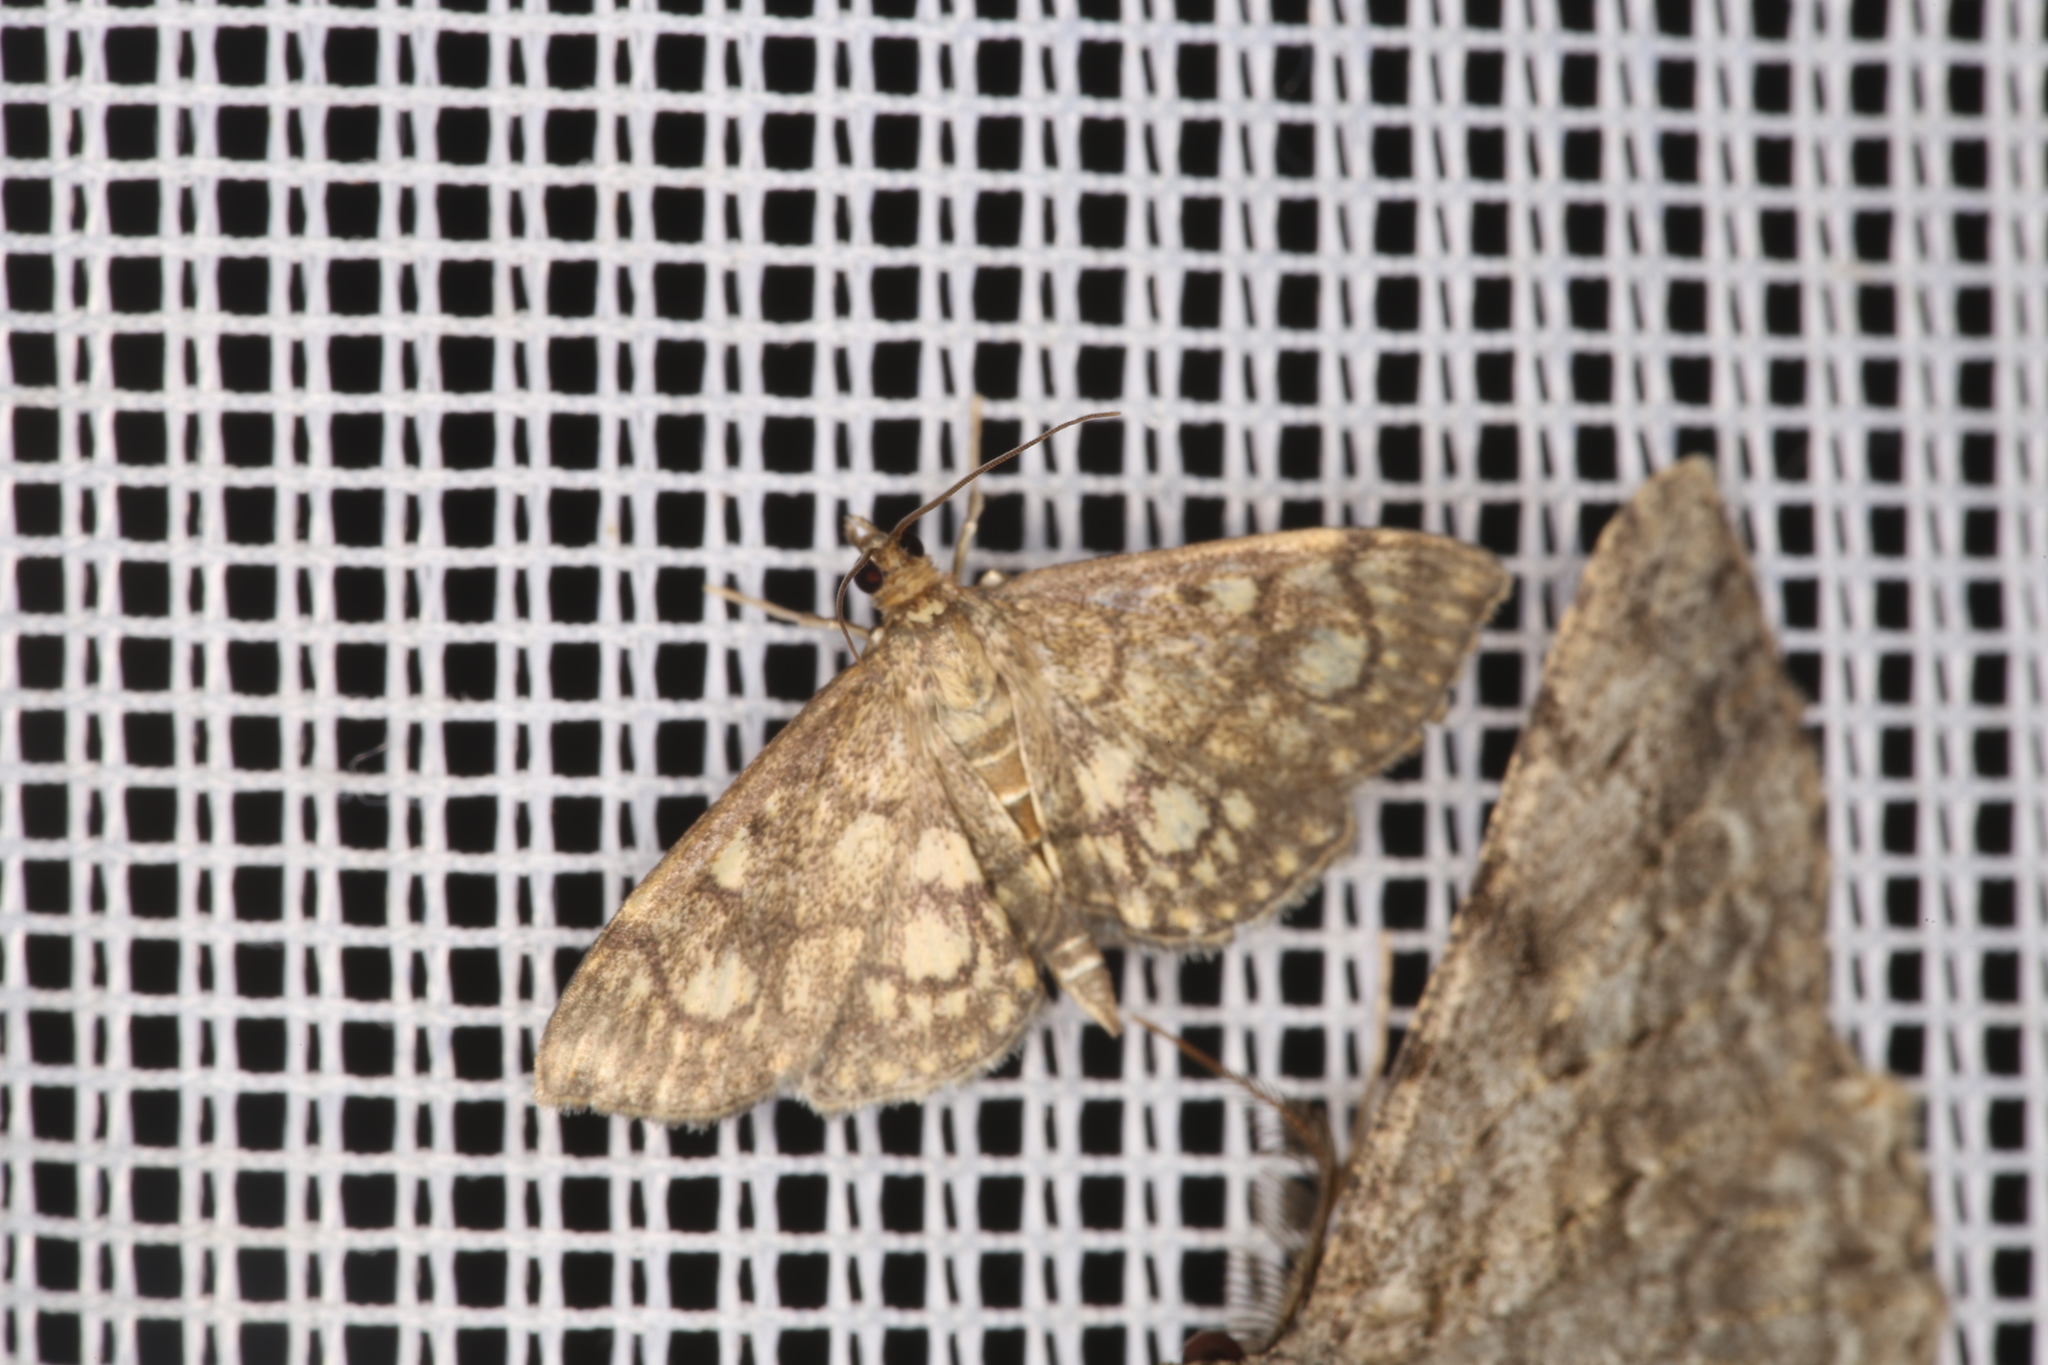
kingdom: Animalia
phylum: Arthropoda
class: Insecta
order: Lepidoptera
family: Crambidae
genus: Anania
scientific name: Anania stachydalis
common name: Woundwort pearl
